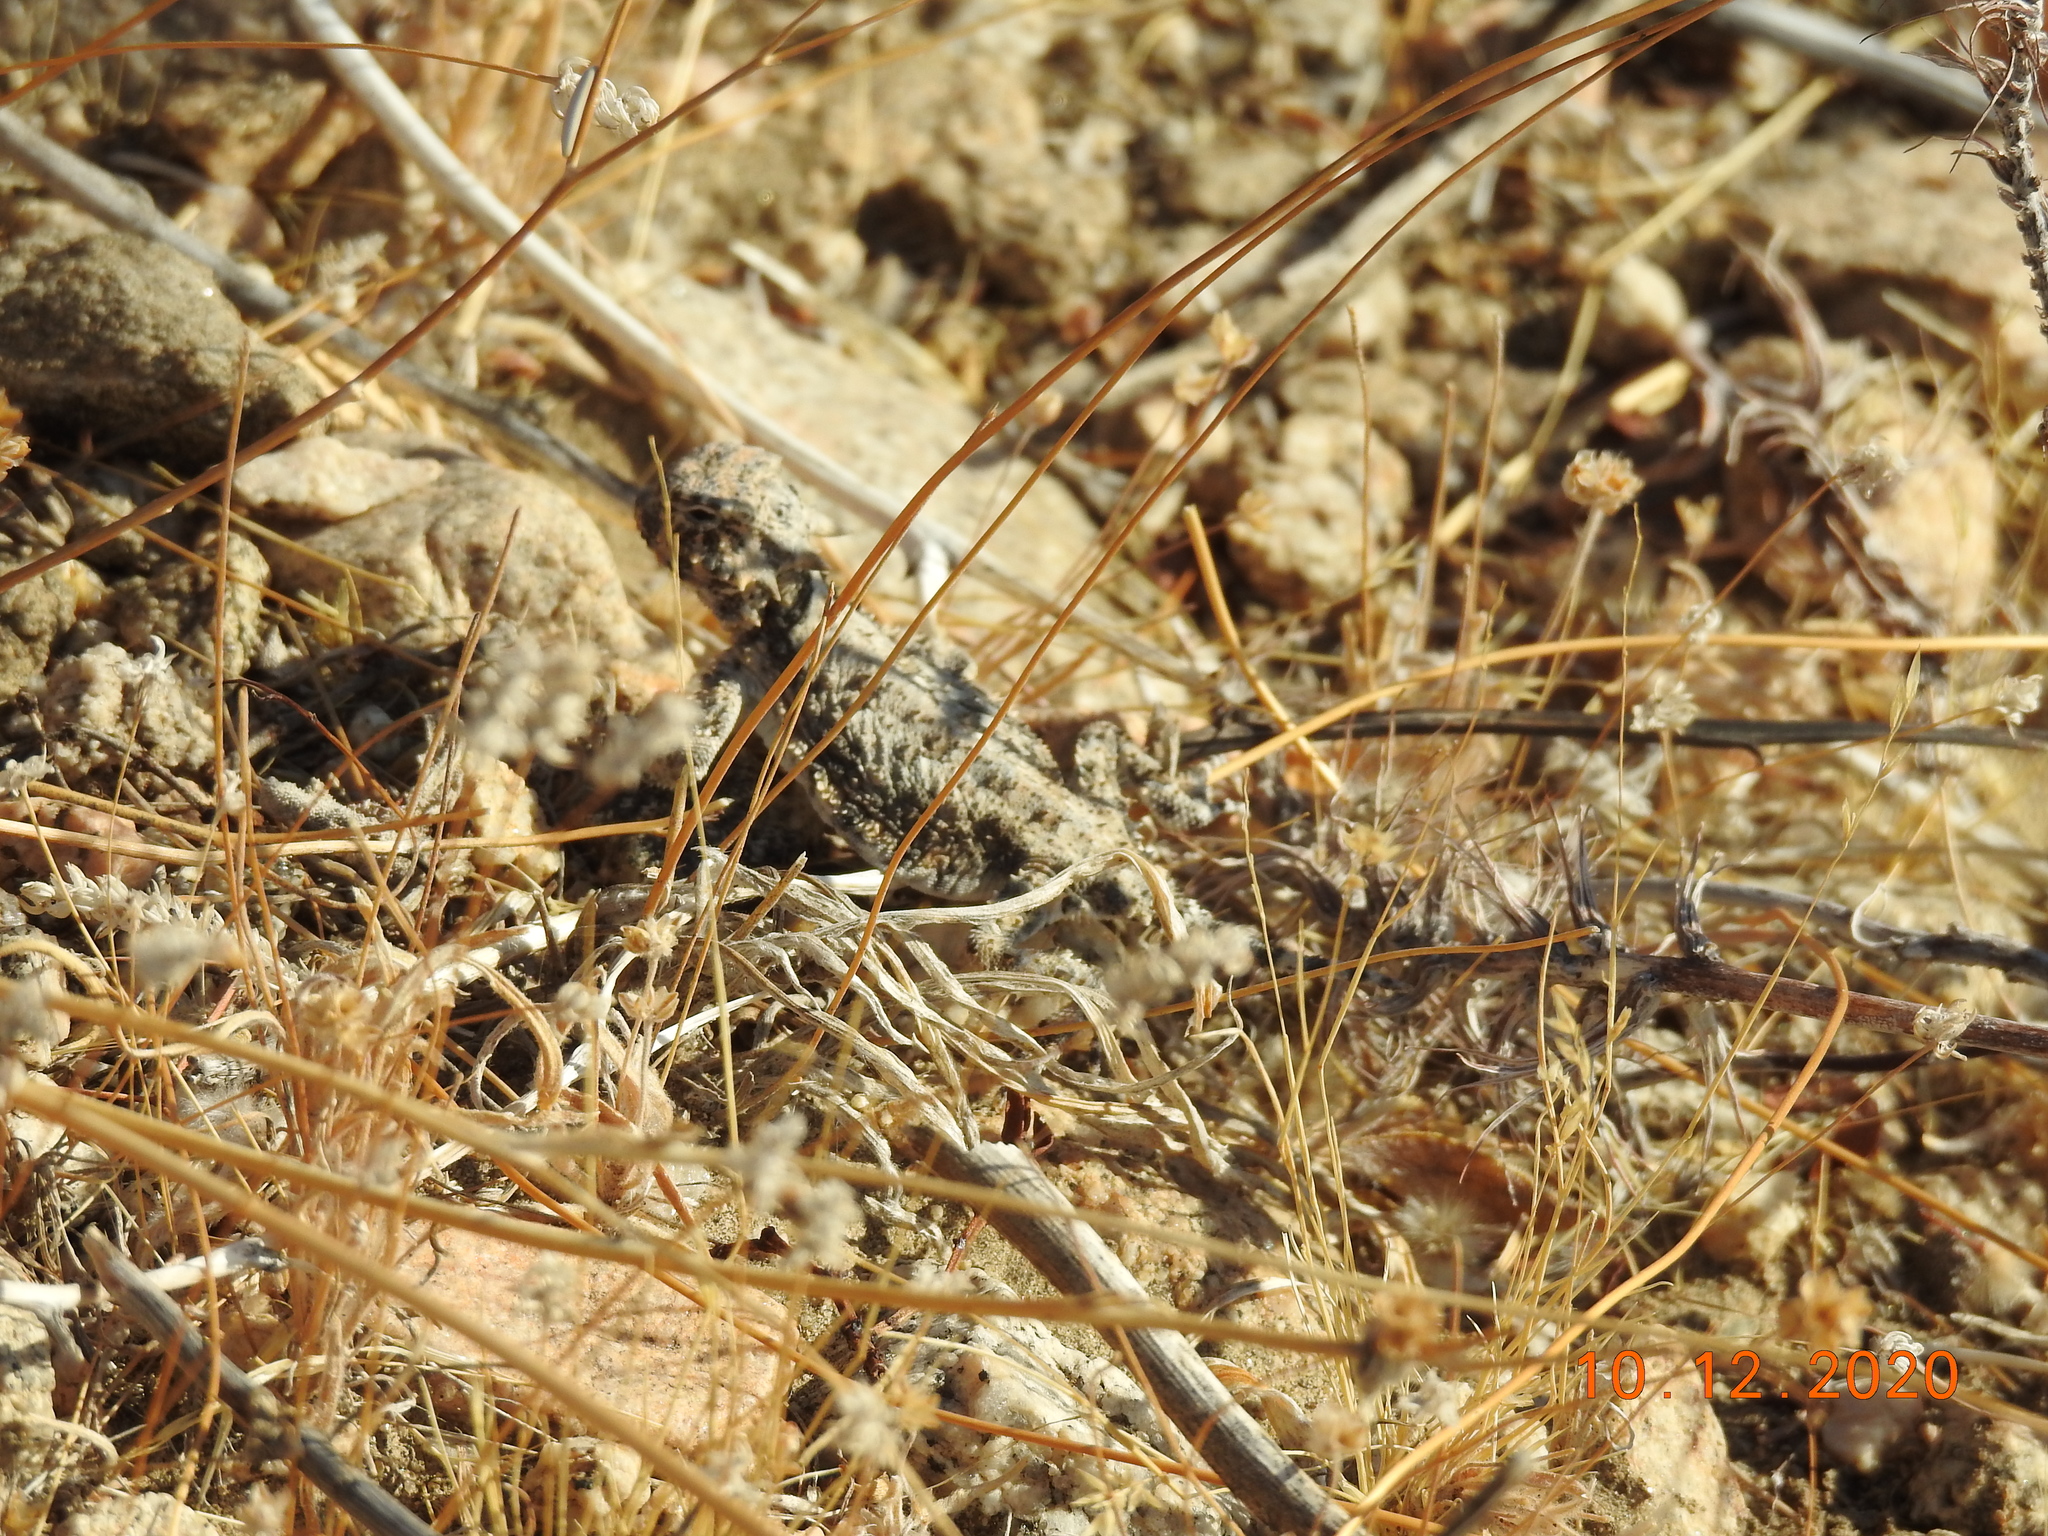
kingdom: Animalia
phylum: Chordata
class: Squamata
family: Phrynosomatidae
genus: Phrynosoma
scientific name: Phrynosoma platyrhinos
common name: Desert horned lizard
